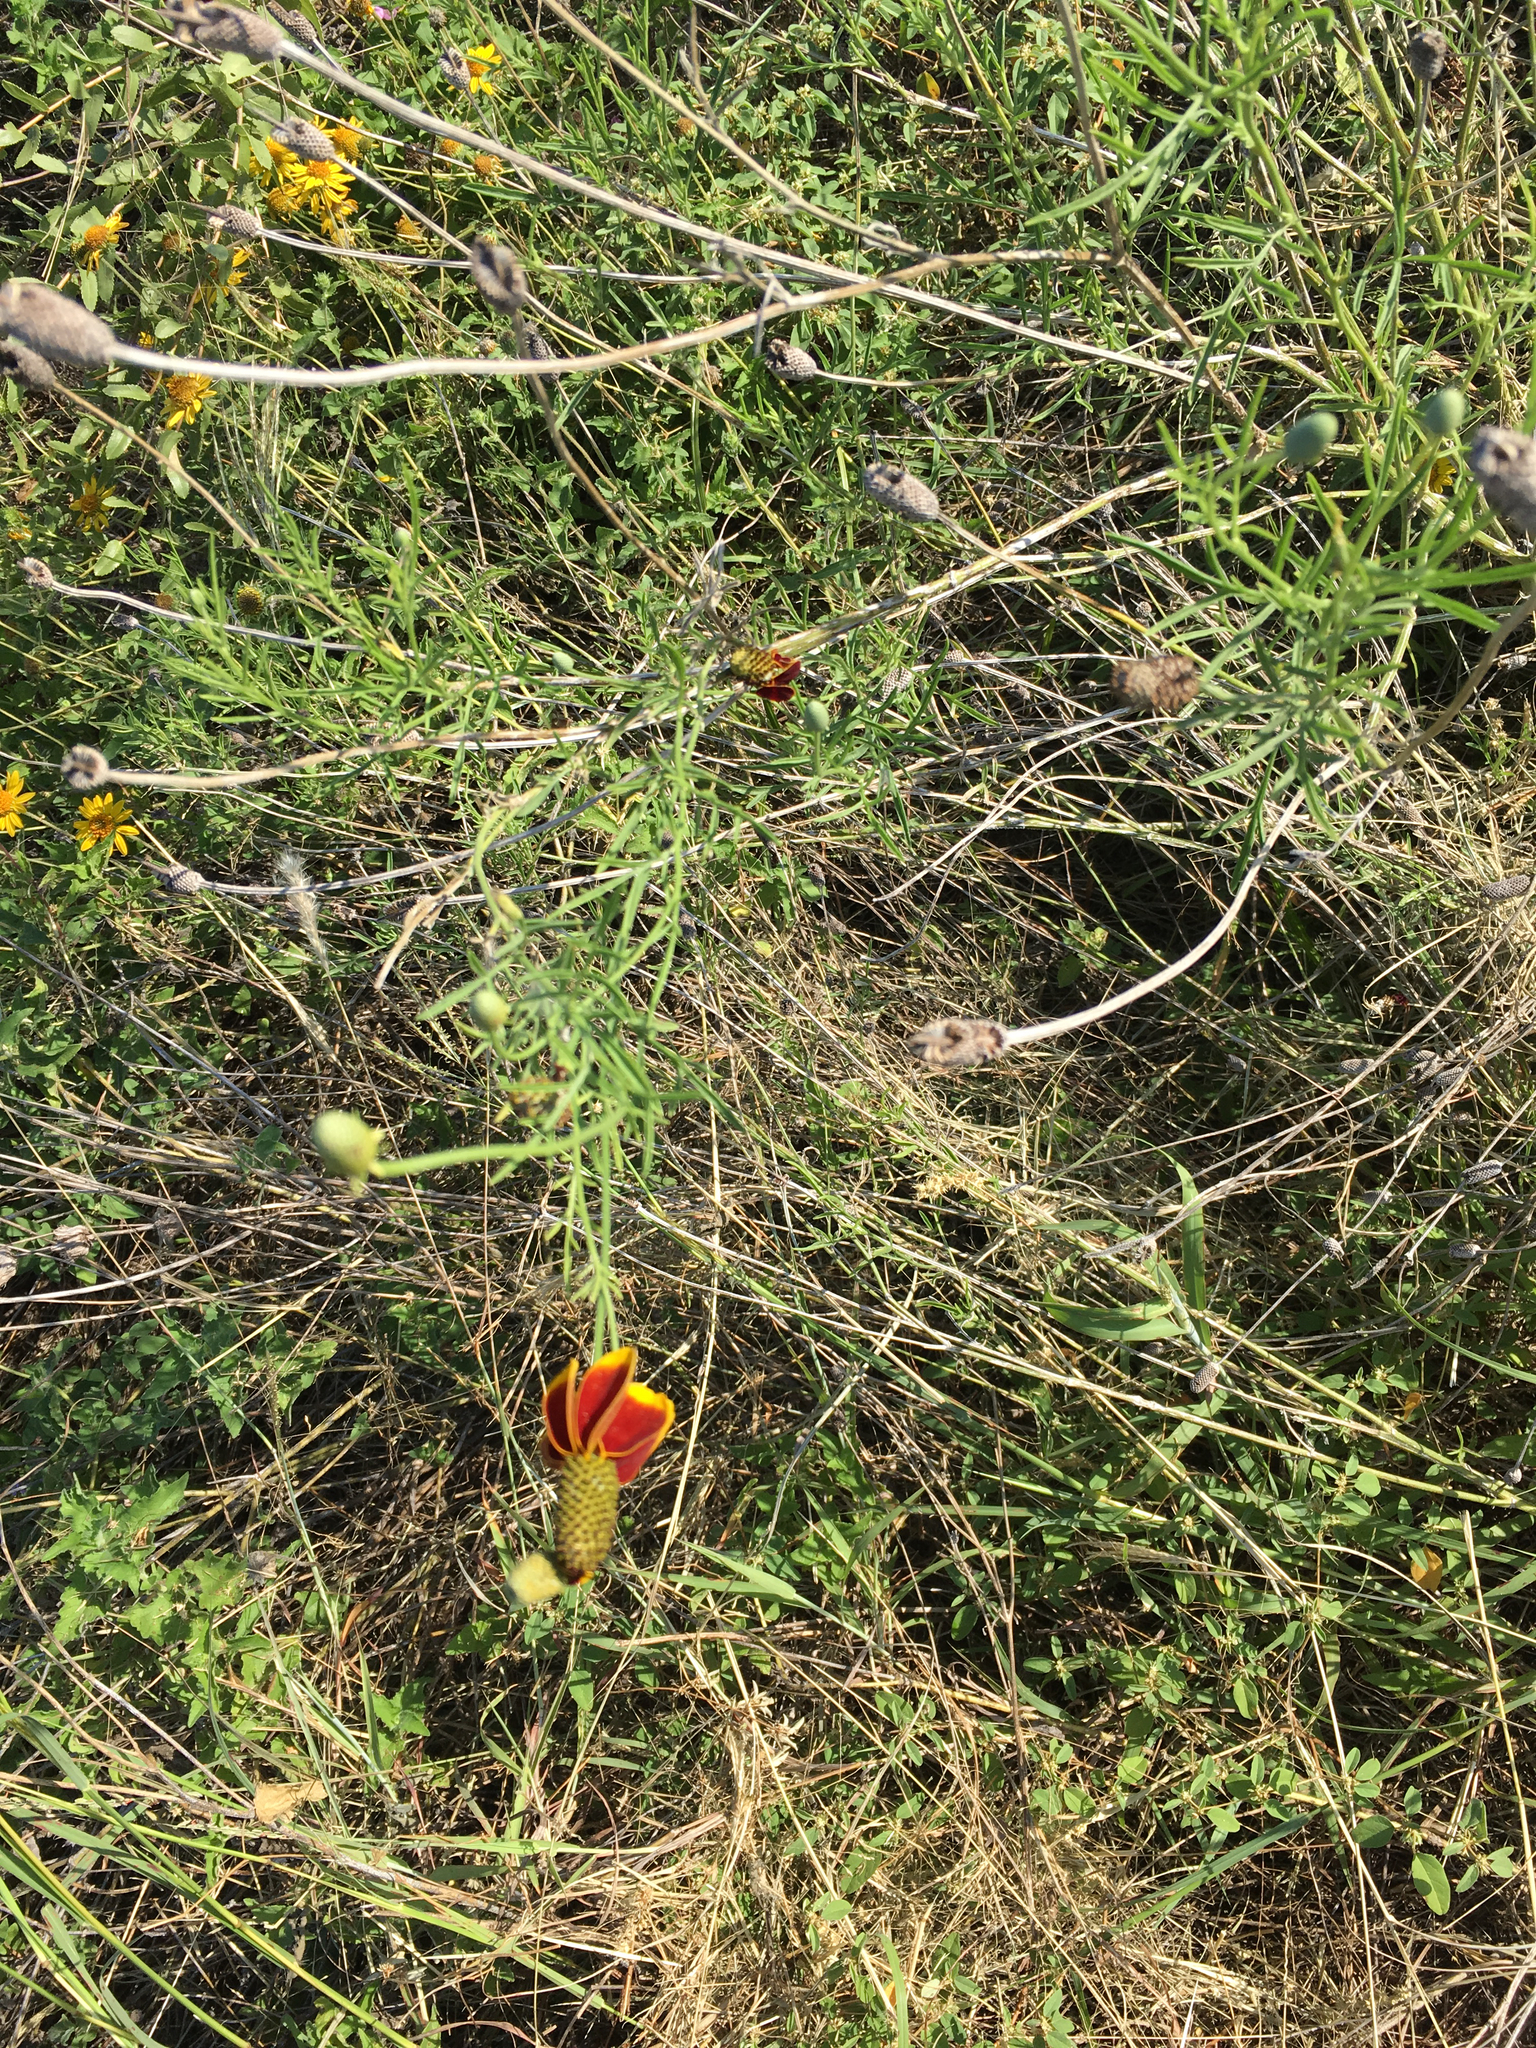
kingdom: Plantae
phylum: Tracheophyta
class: Magnoliopsida
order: Asterales
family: Asteraceae
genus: Ratibida
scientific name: Ratibida columnifera
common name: Prairie coneflower
